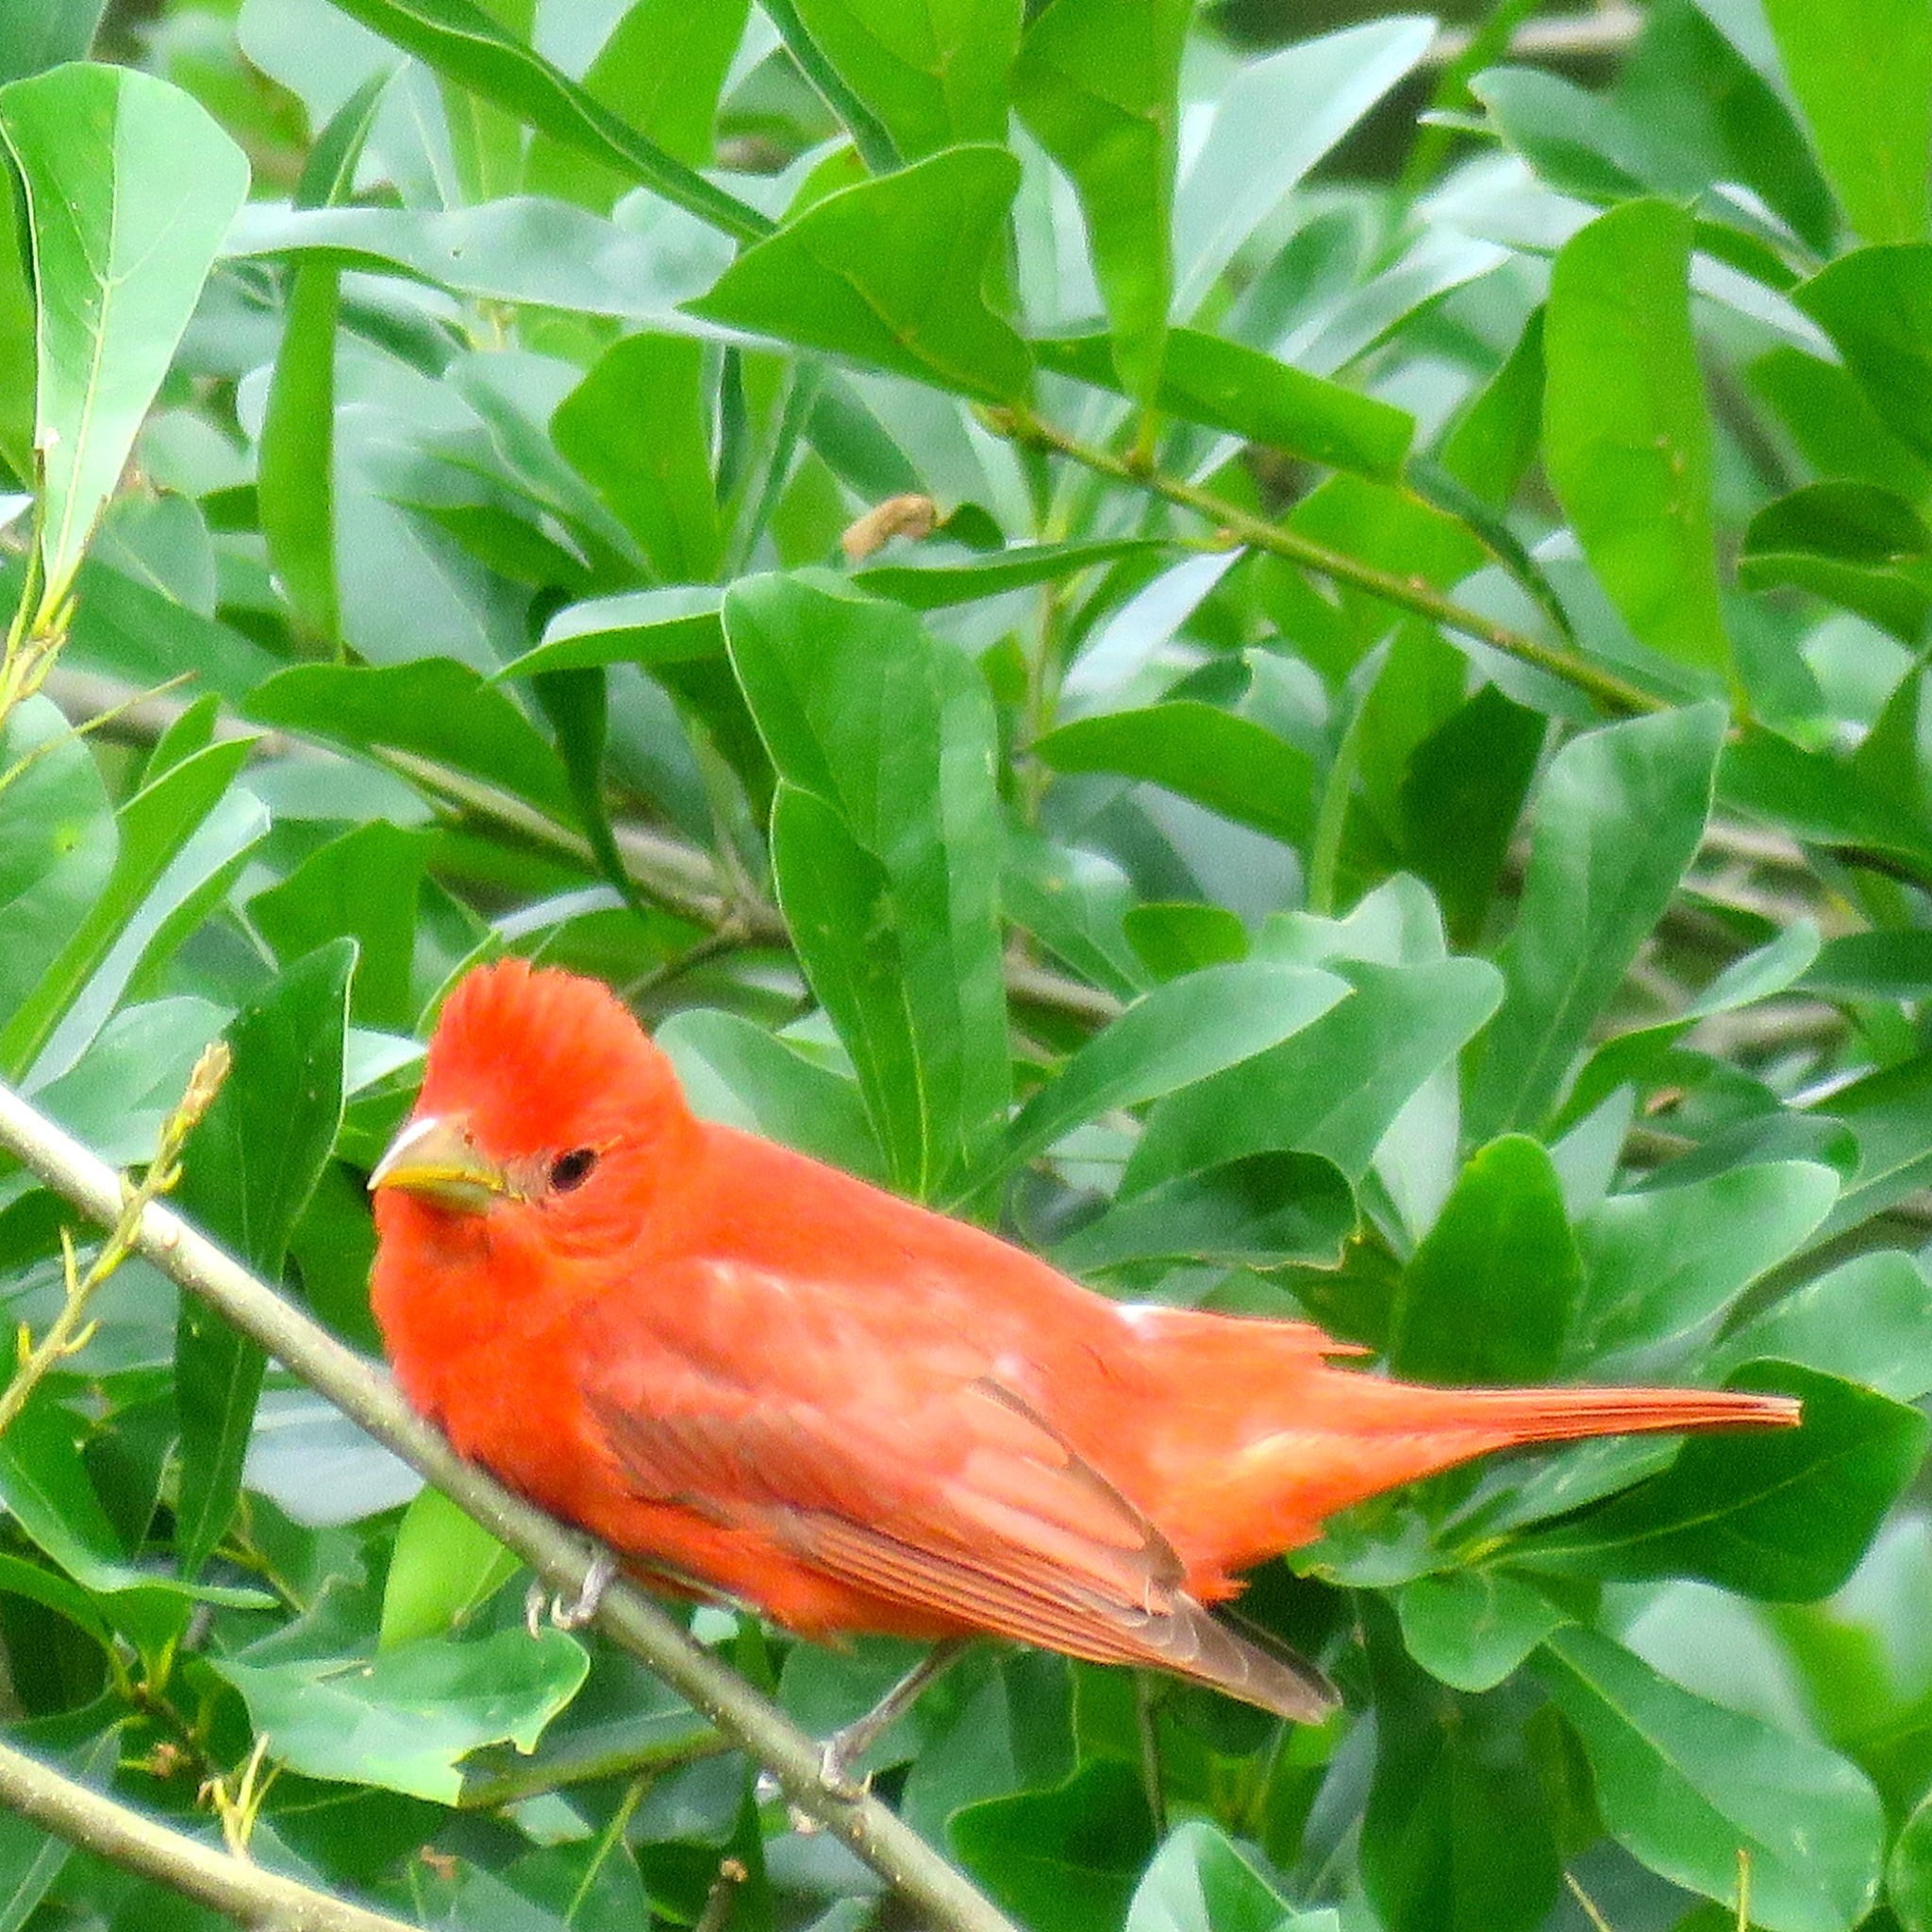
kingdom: Animalia
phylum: Chordata
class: Aves
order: Passeriformes
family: Cardinalidae
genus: Piranga
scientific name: Piranga rubra
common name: Summer tanager
